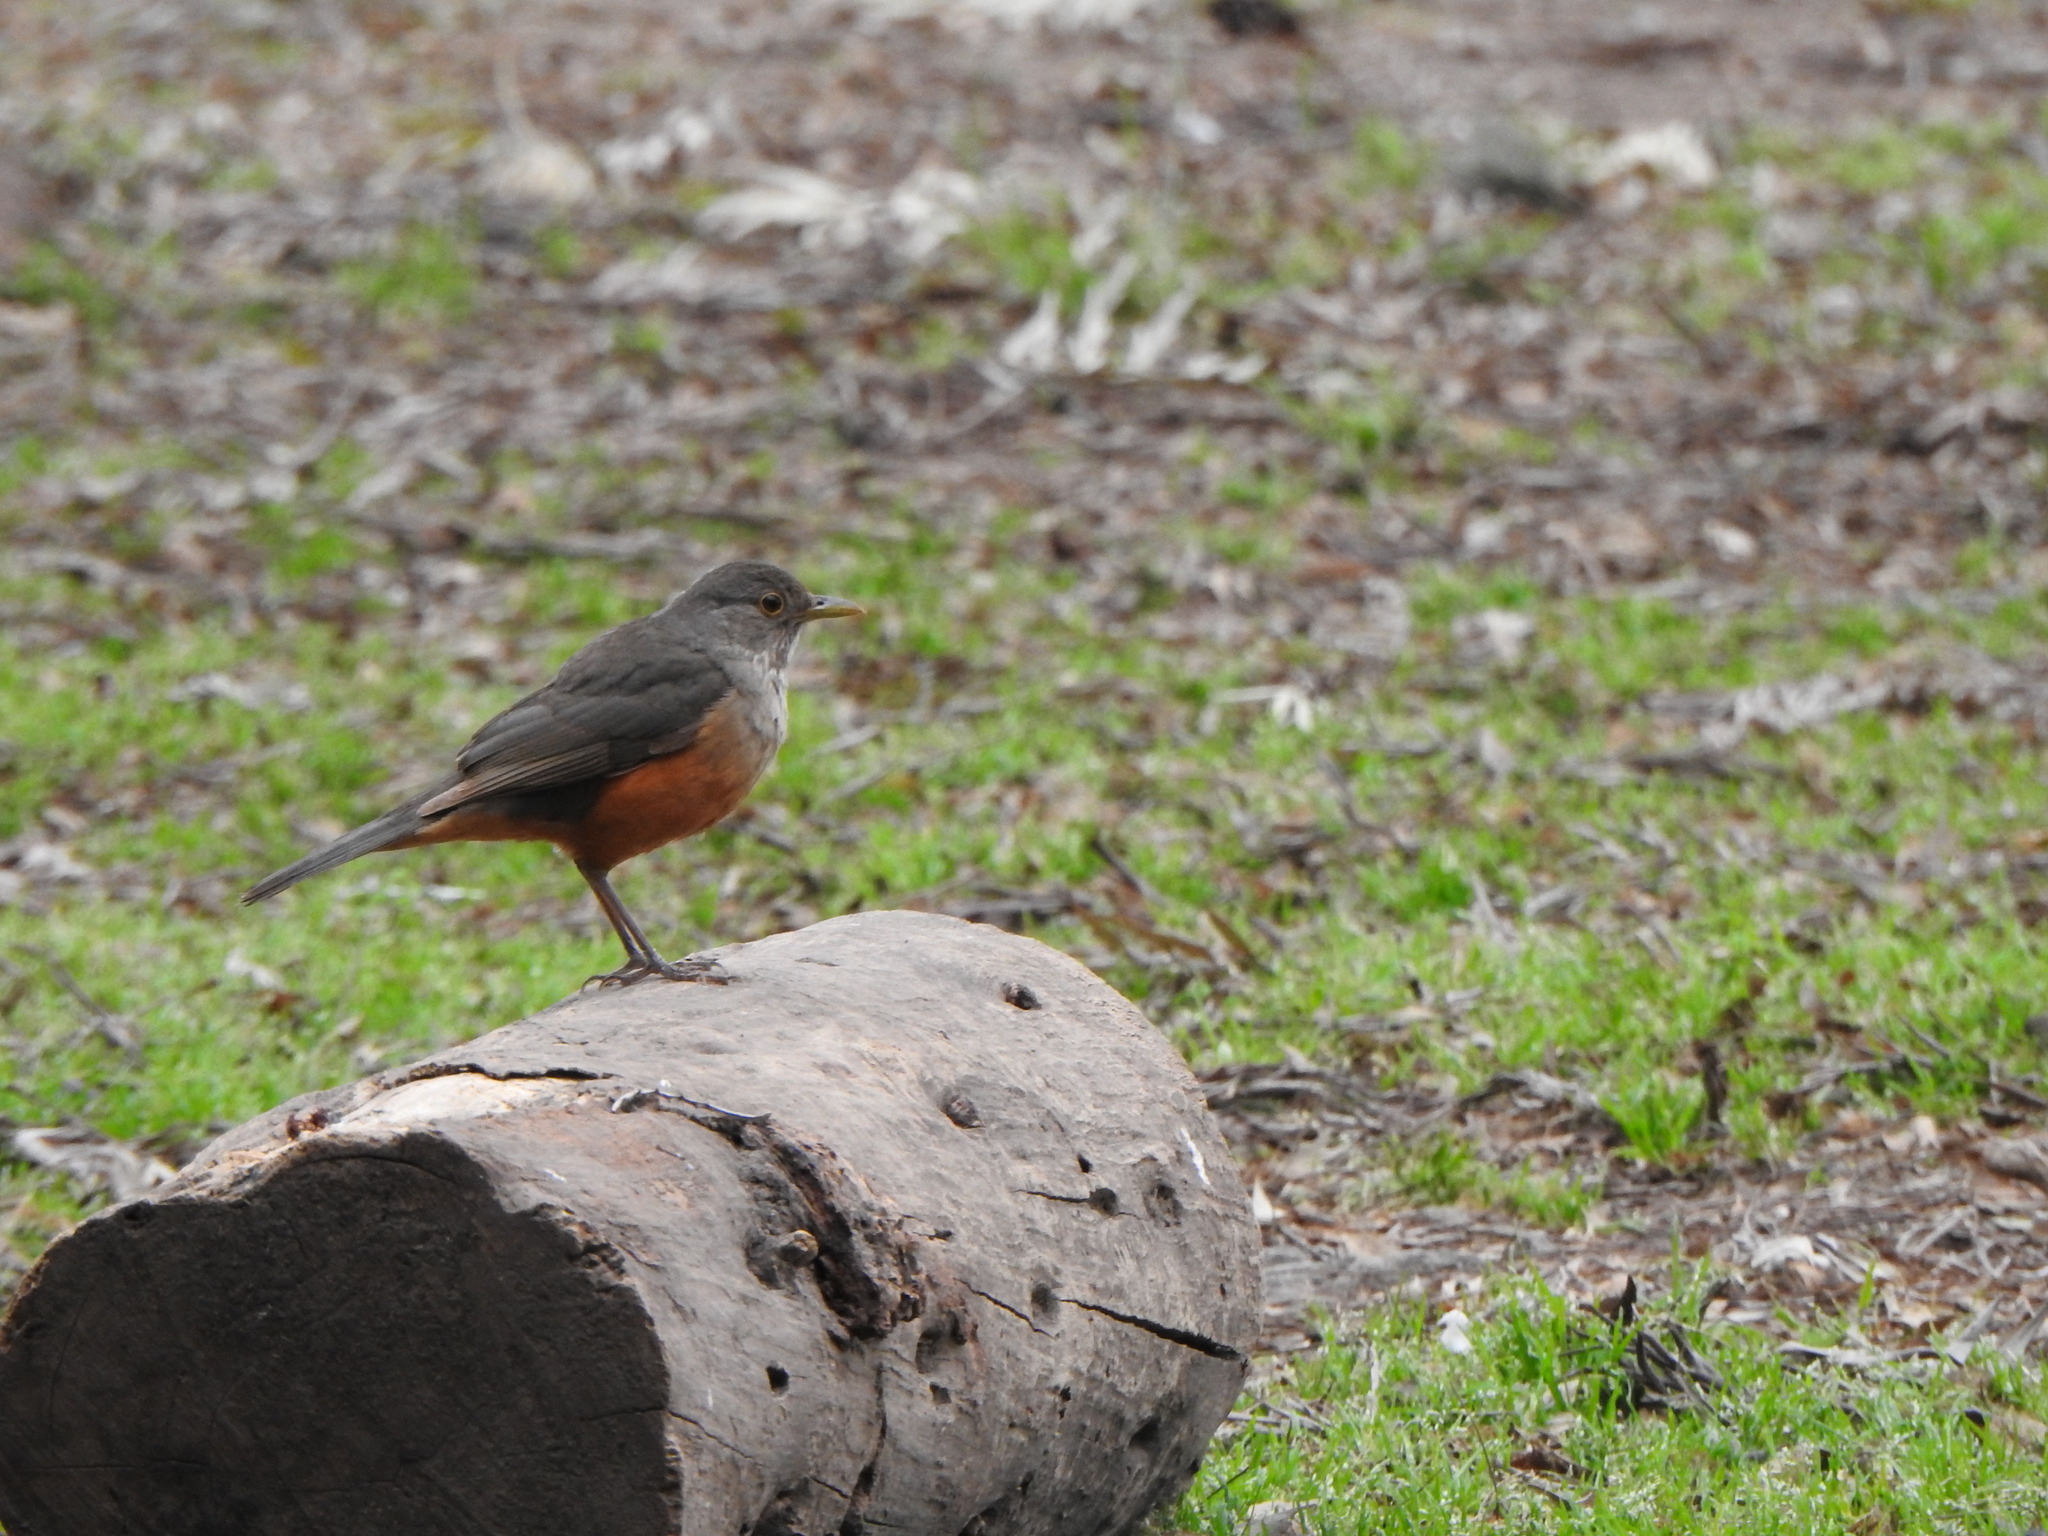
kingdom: Animalia
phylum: Chordata
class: Aves
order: Passeriformes
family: Turdidae
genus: Turdus
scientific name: Turdus rufiventris
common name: Rufous-bellied thrush
